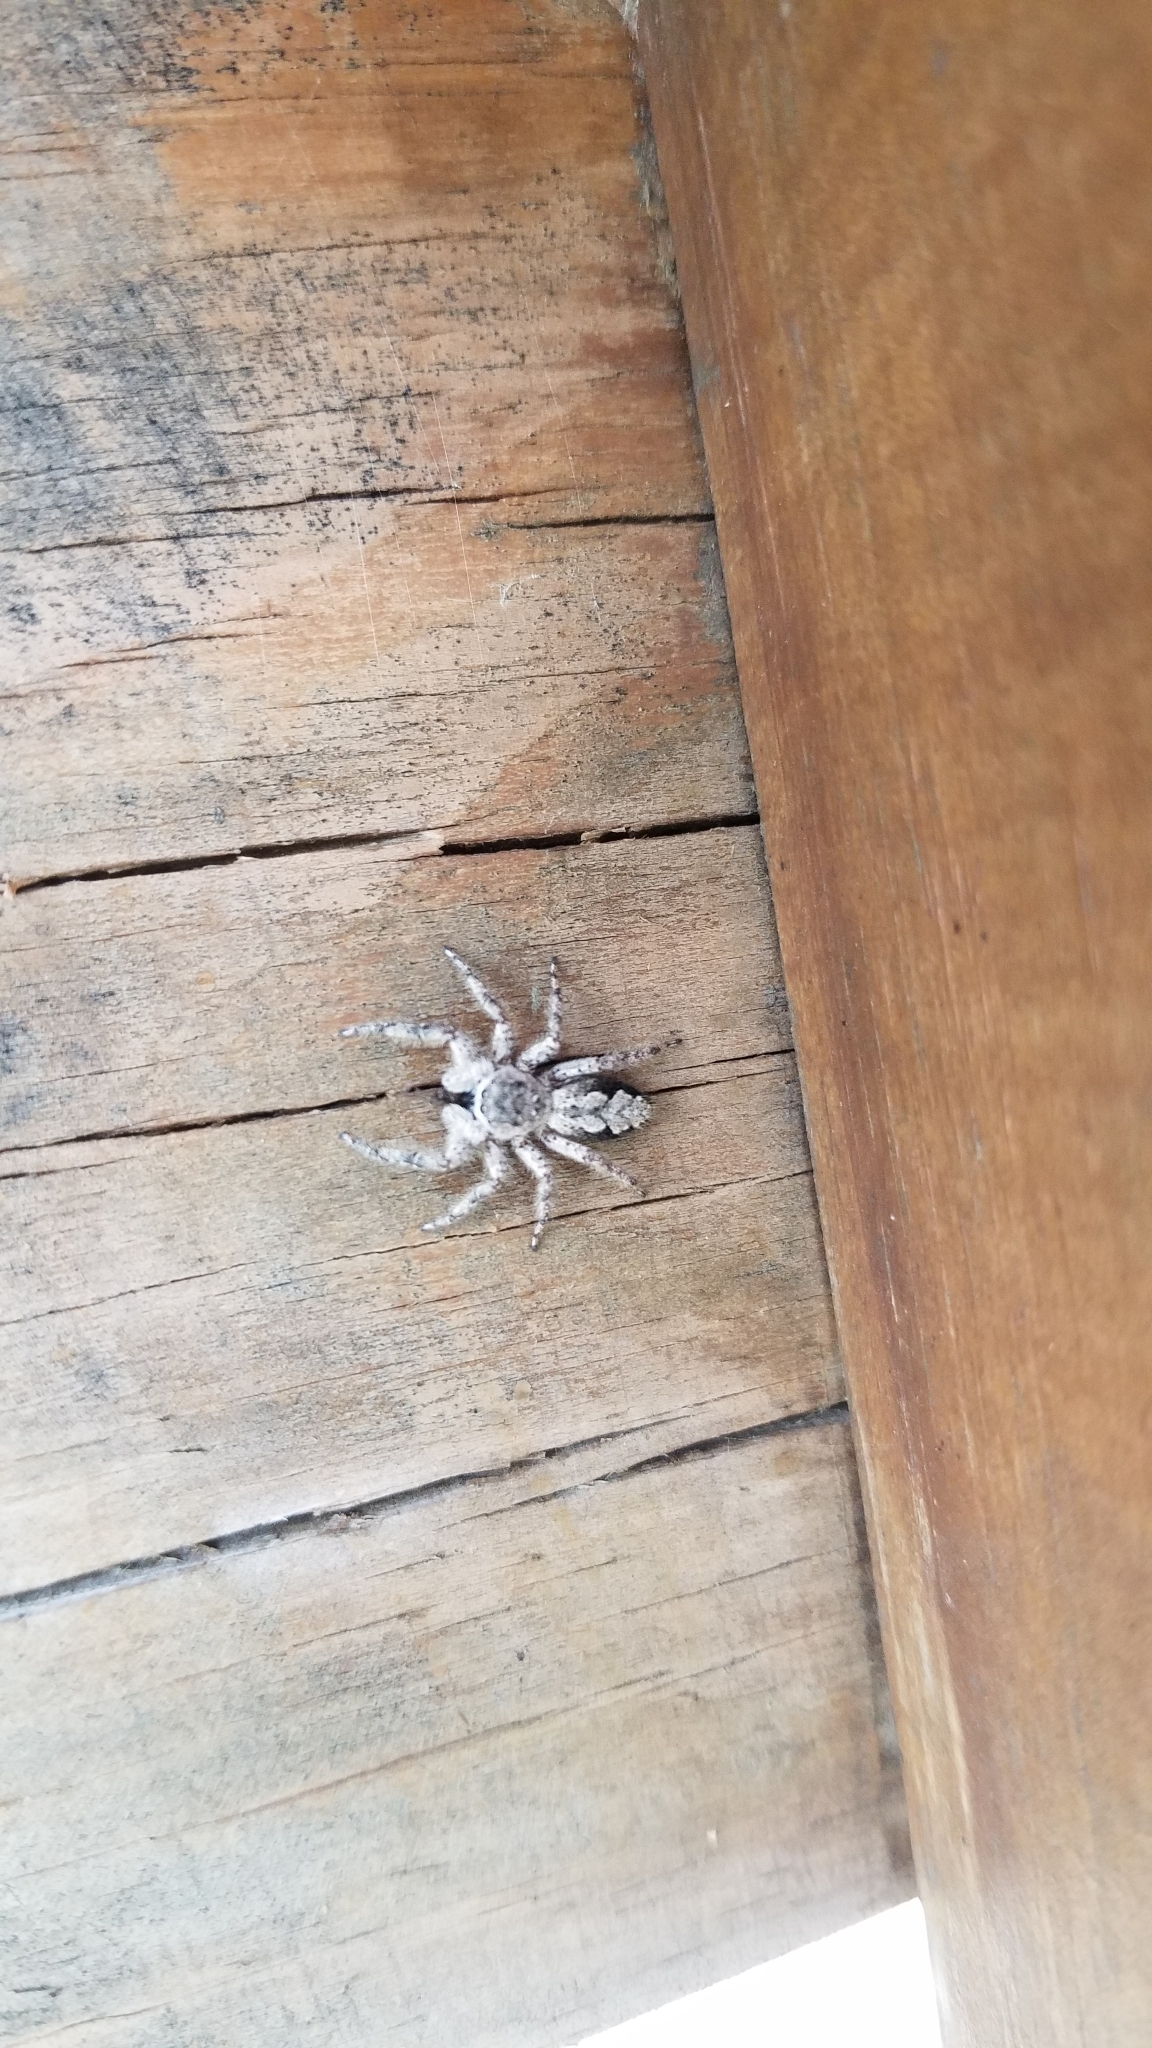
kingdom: Animalia
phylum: Arthropoda
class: Arachnida
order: Araneae
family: Salticidae
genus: Platycryptus
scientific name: Platycryptus undatus
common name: Tan jumping spider
